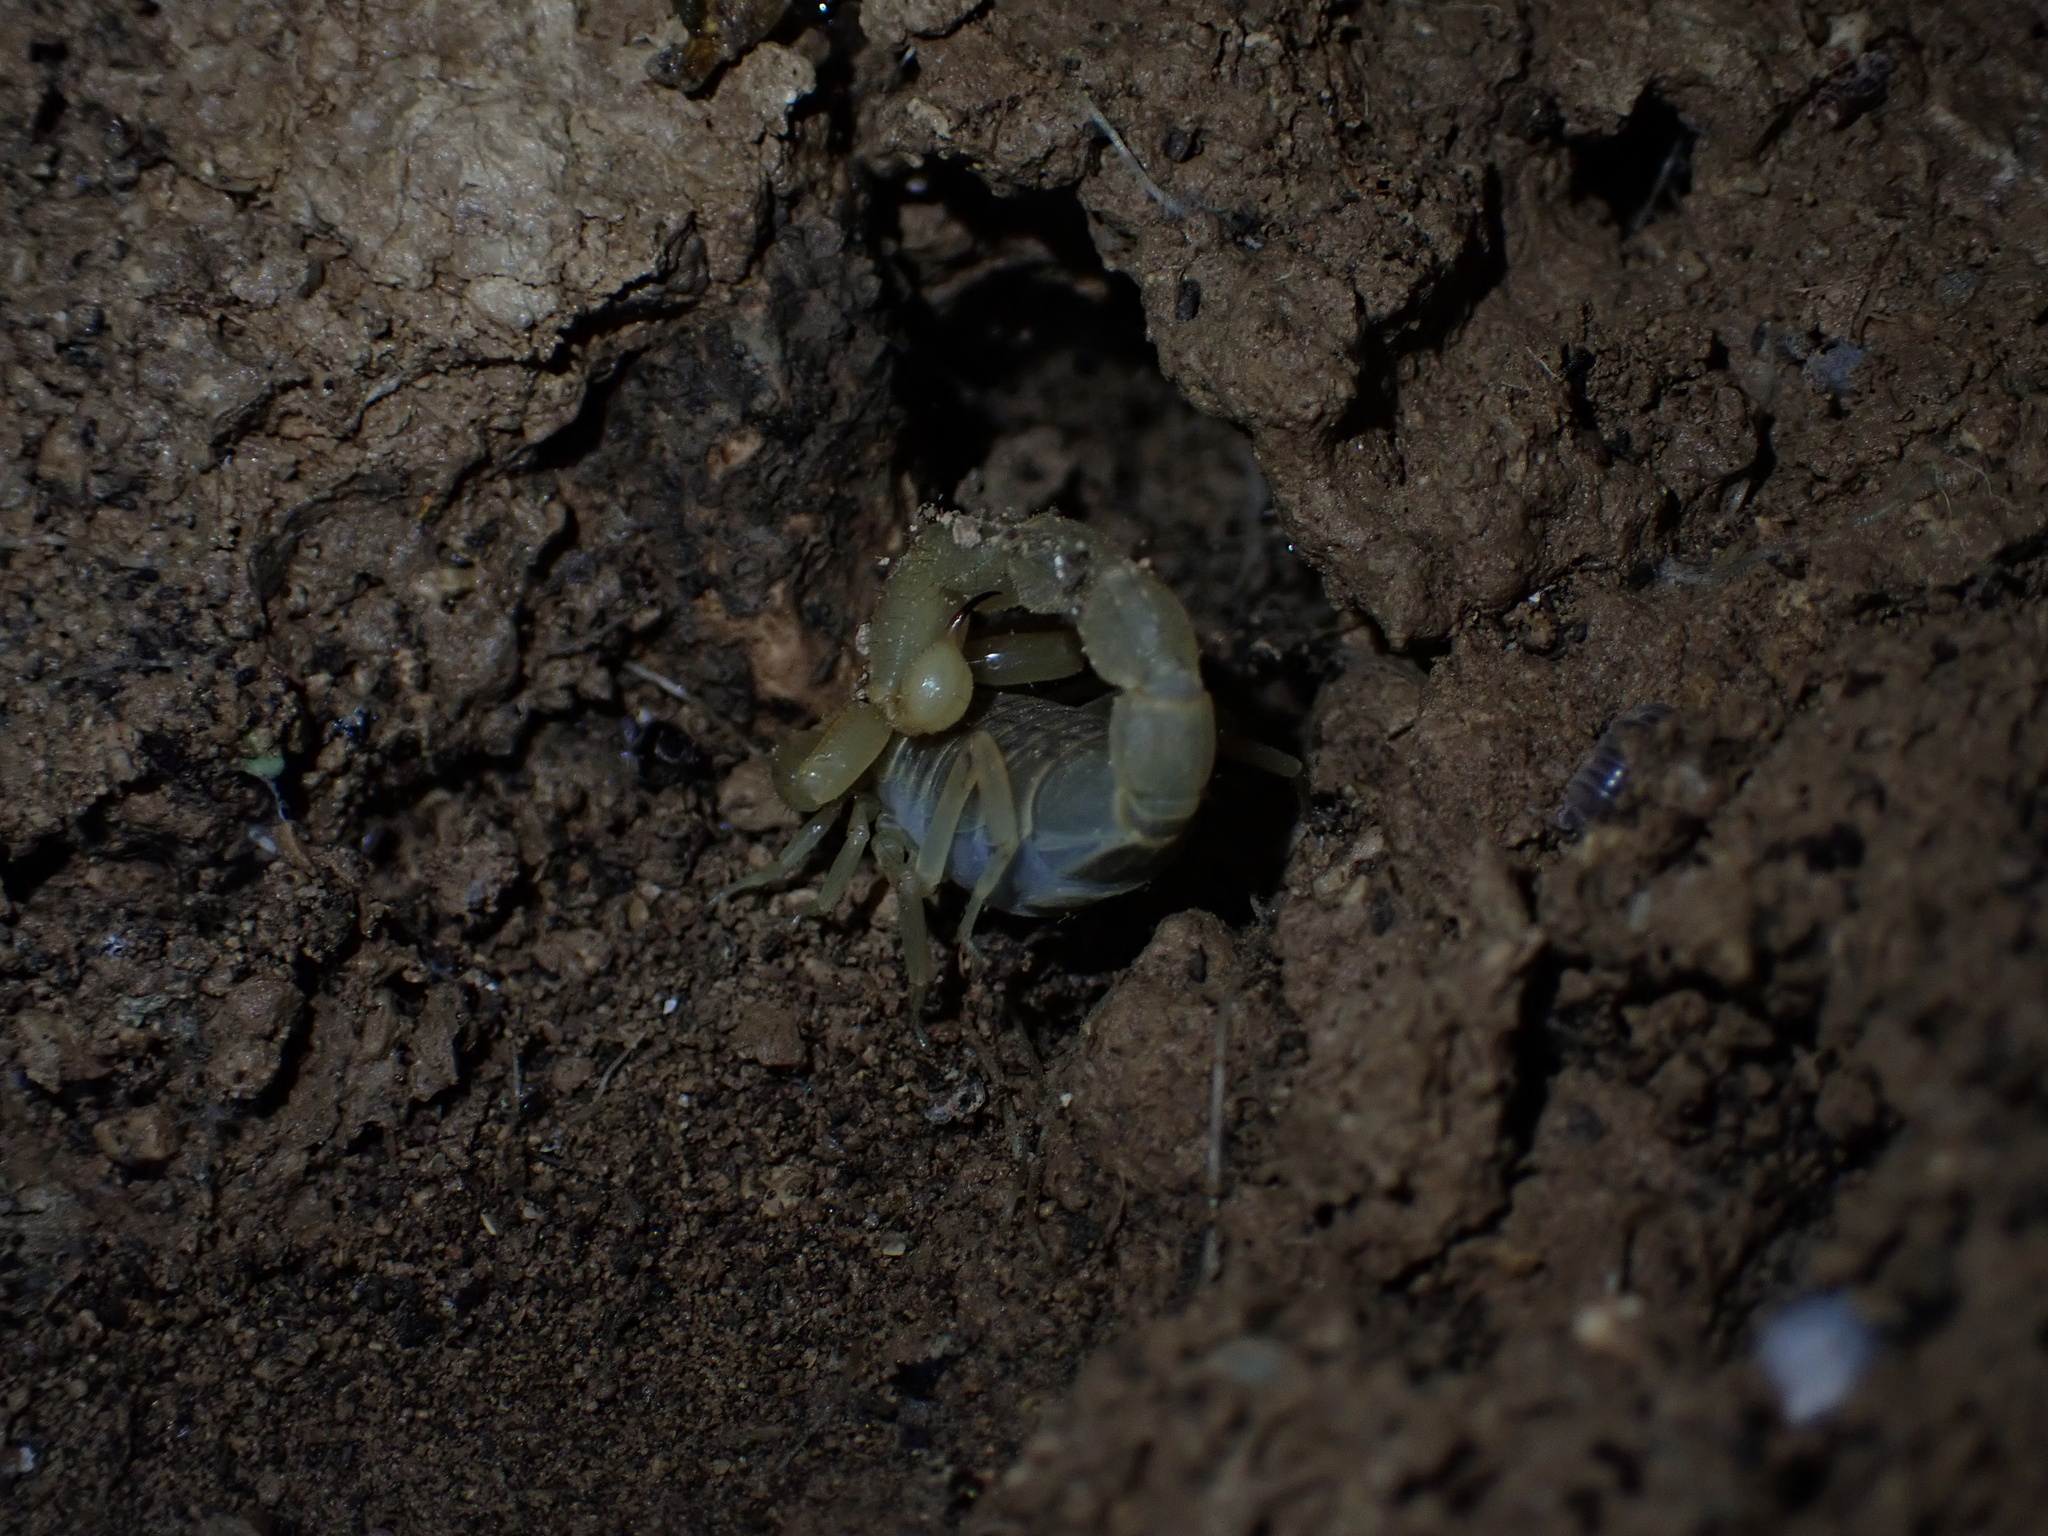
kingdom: Animalia
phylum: Arthropoda
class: Arachnida
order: Scorpiones
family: Buthidae
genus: Mesobuthus
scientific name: Mesobuthus phillipsi
